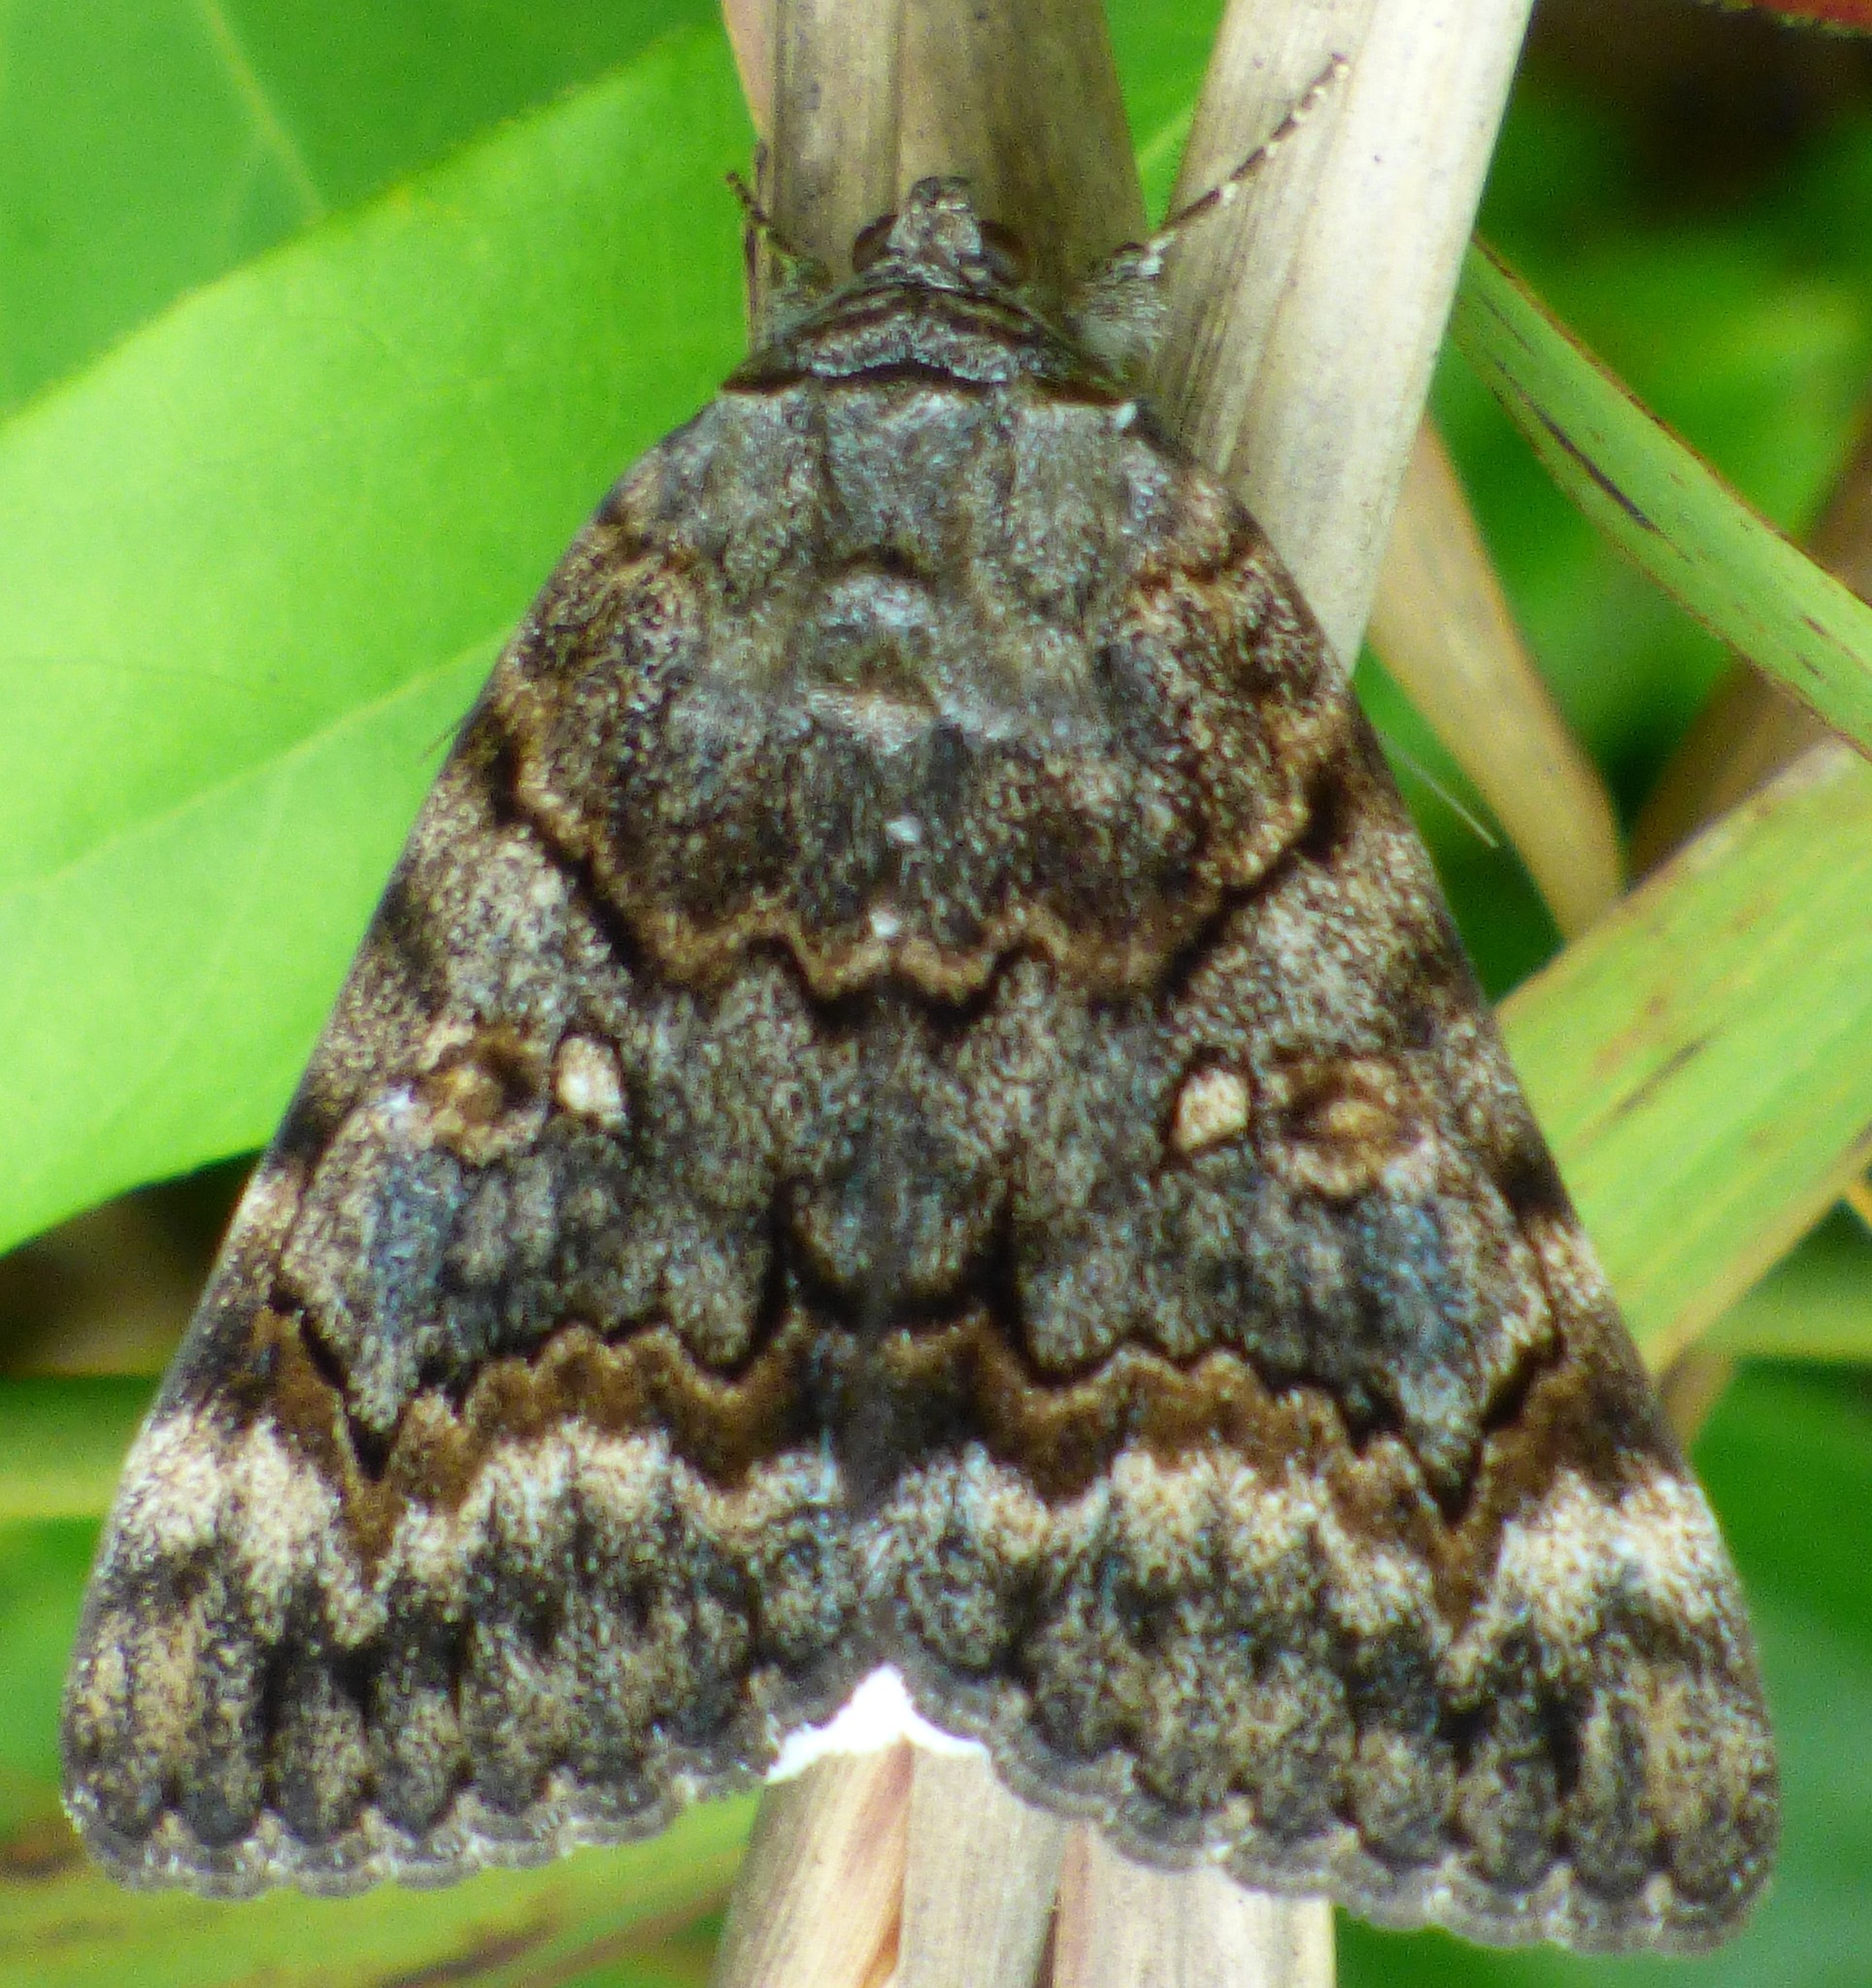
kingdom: Animalia
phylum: Arthropoda
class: Insecta
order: Lepidoptera
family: Erebidae
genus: Catocala
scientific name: Catocala epione
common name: Epione underwing
